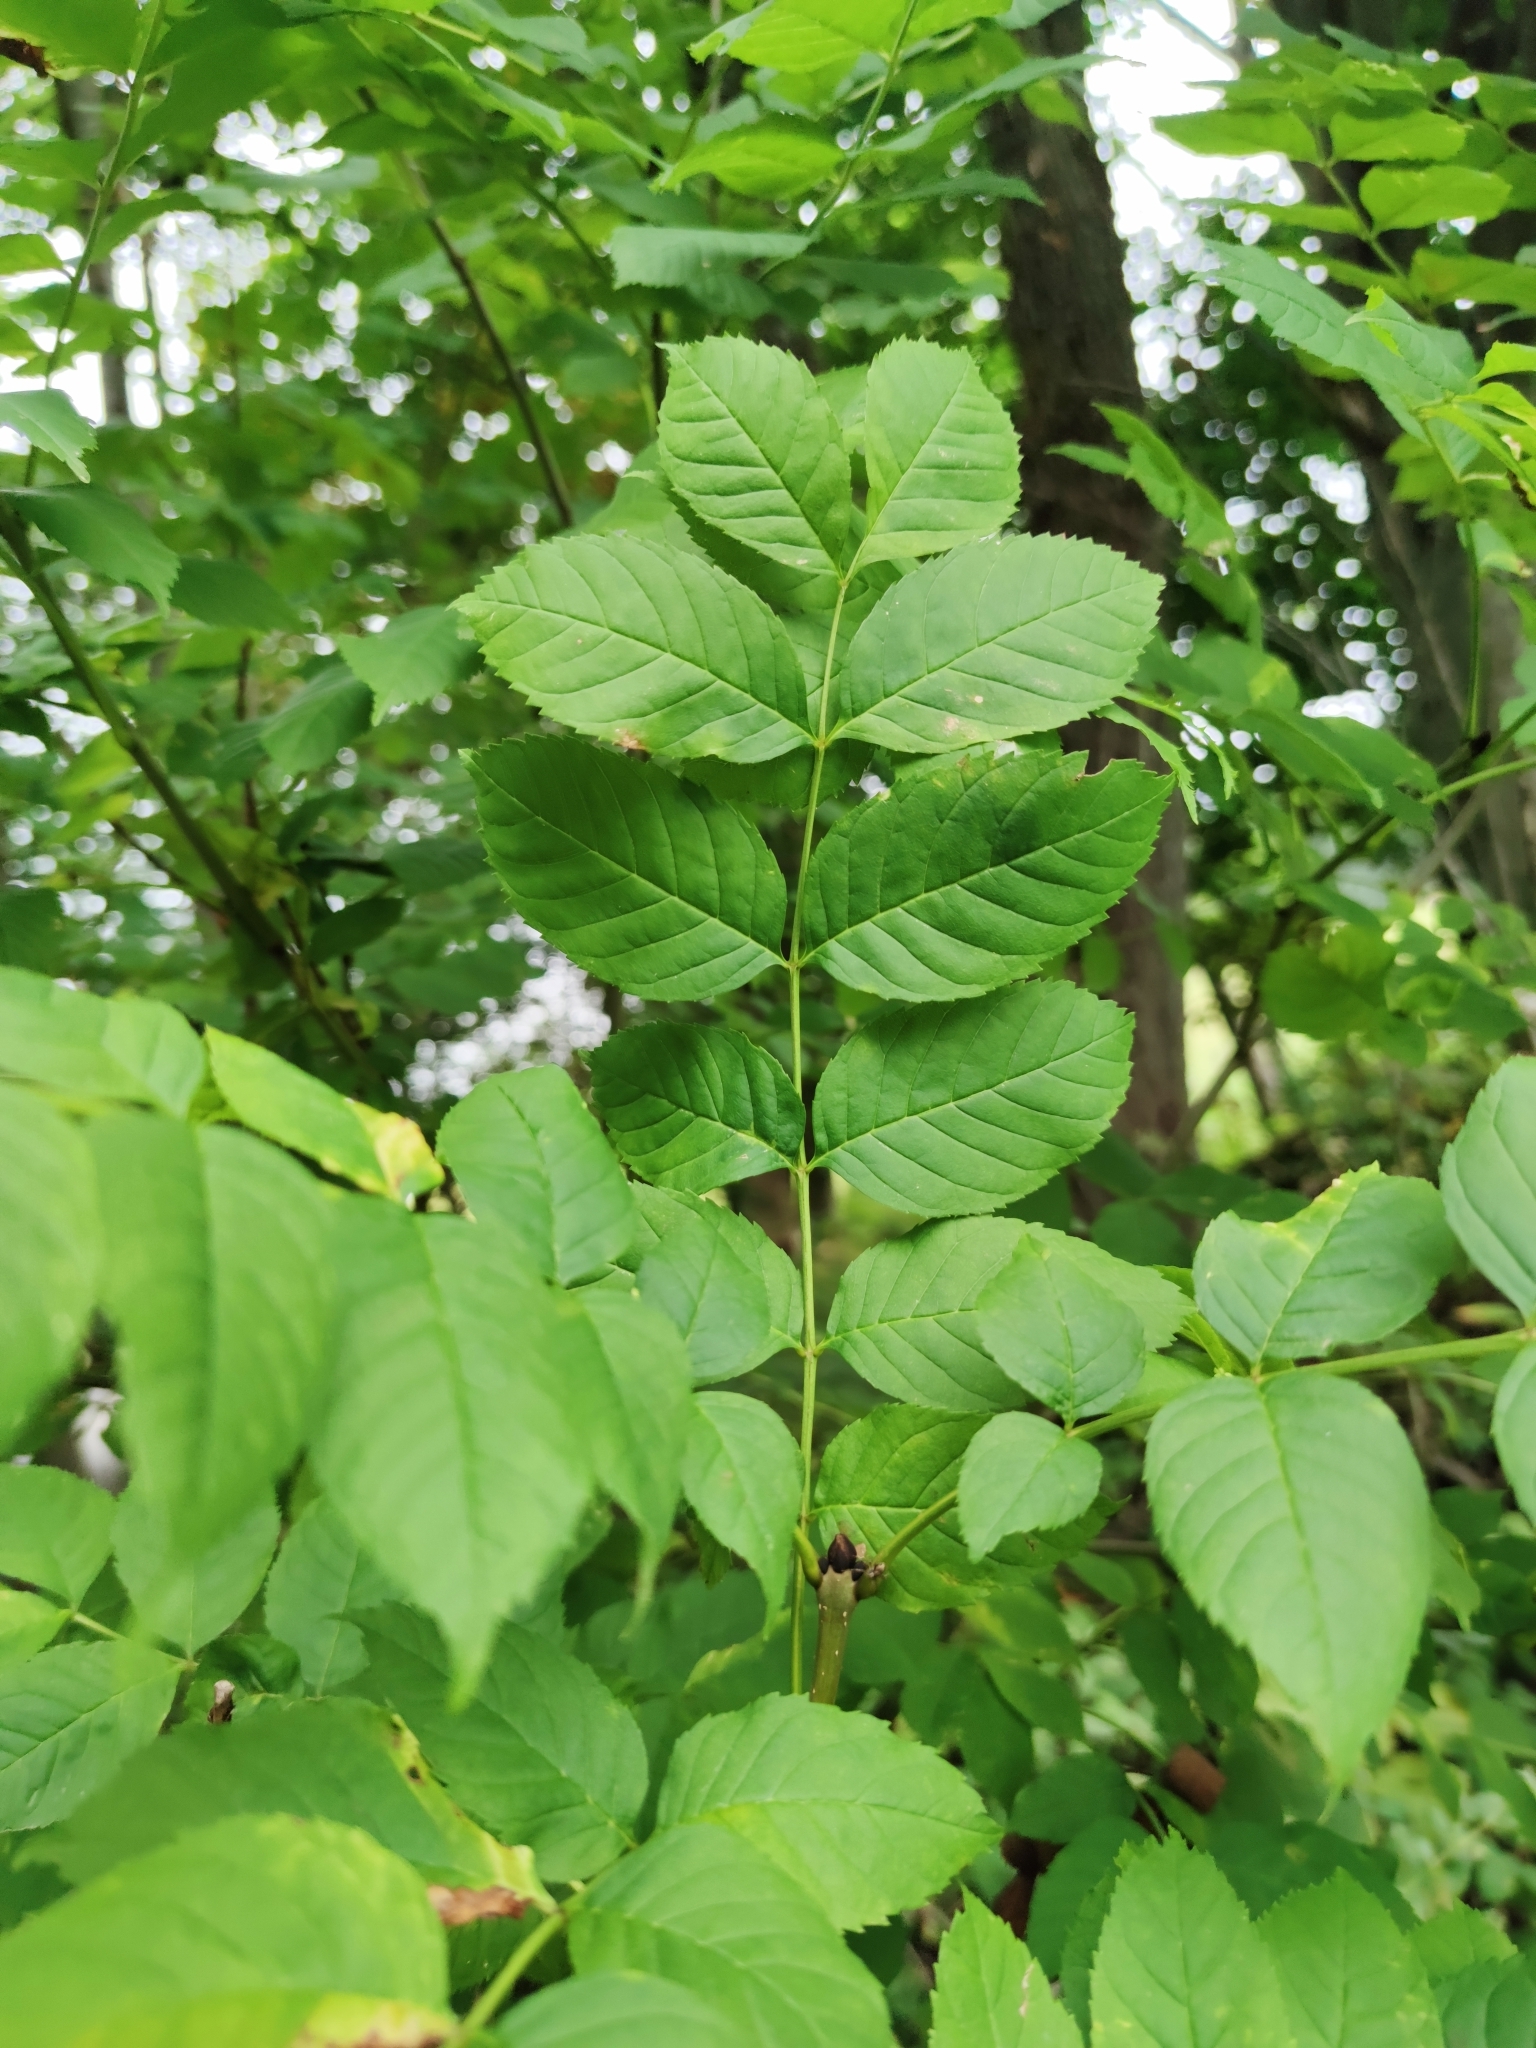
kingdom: Plantae
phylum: Tracheophyta
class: Magnoliopsida
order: Lamiales
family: Oleaceae
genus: Fraxinus
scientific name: Fraxinus excelsior
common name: European ash
